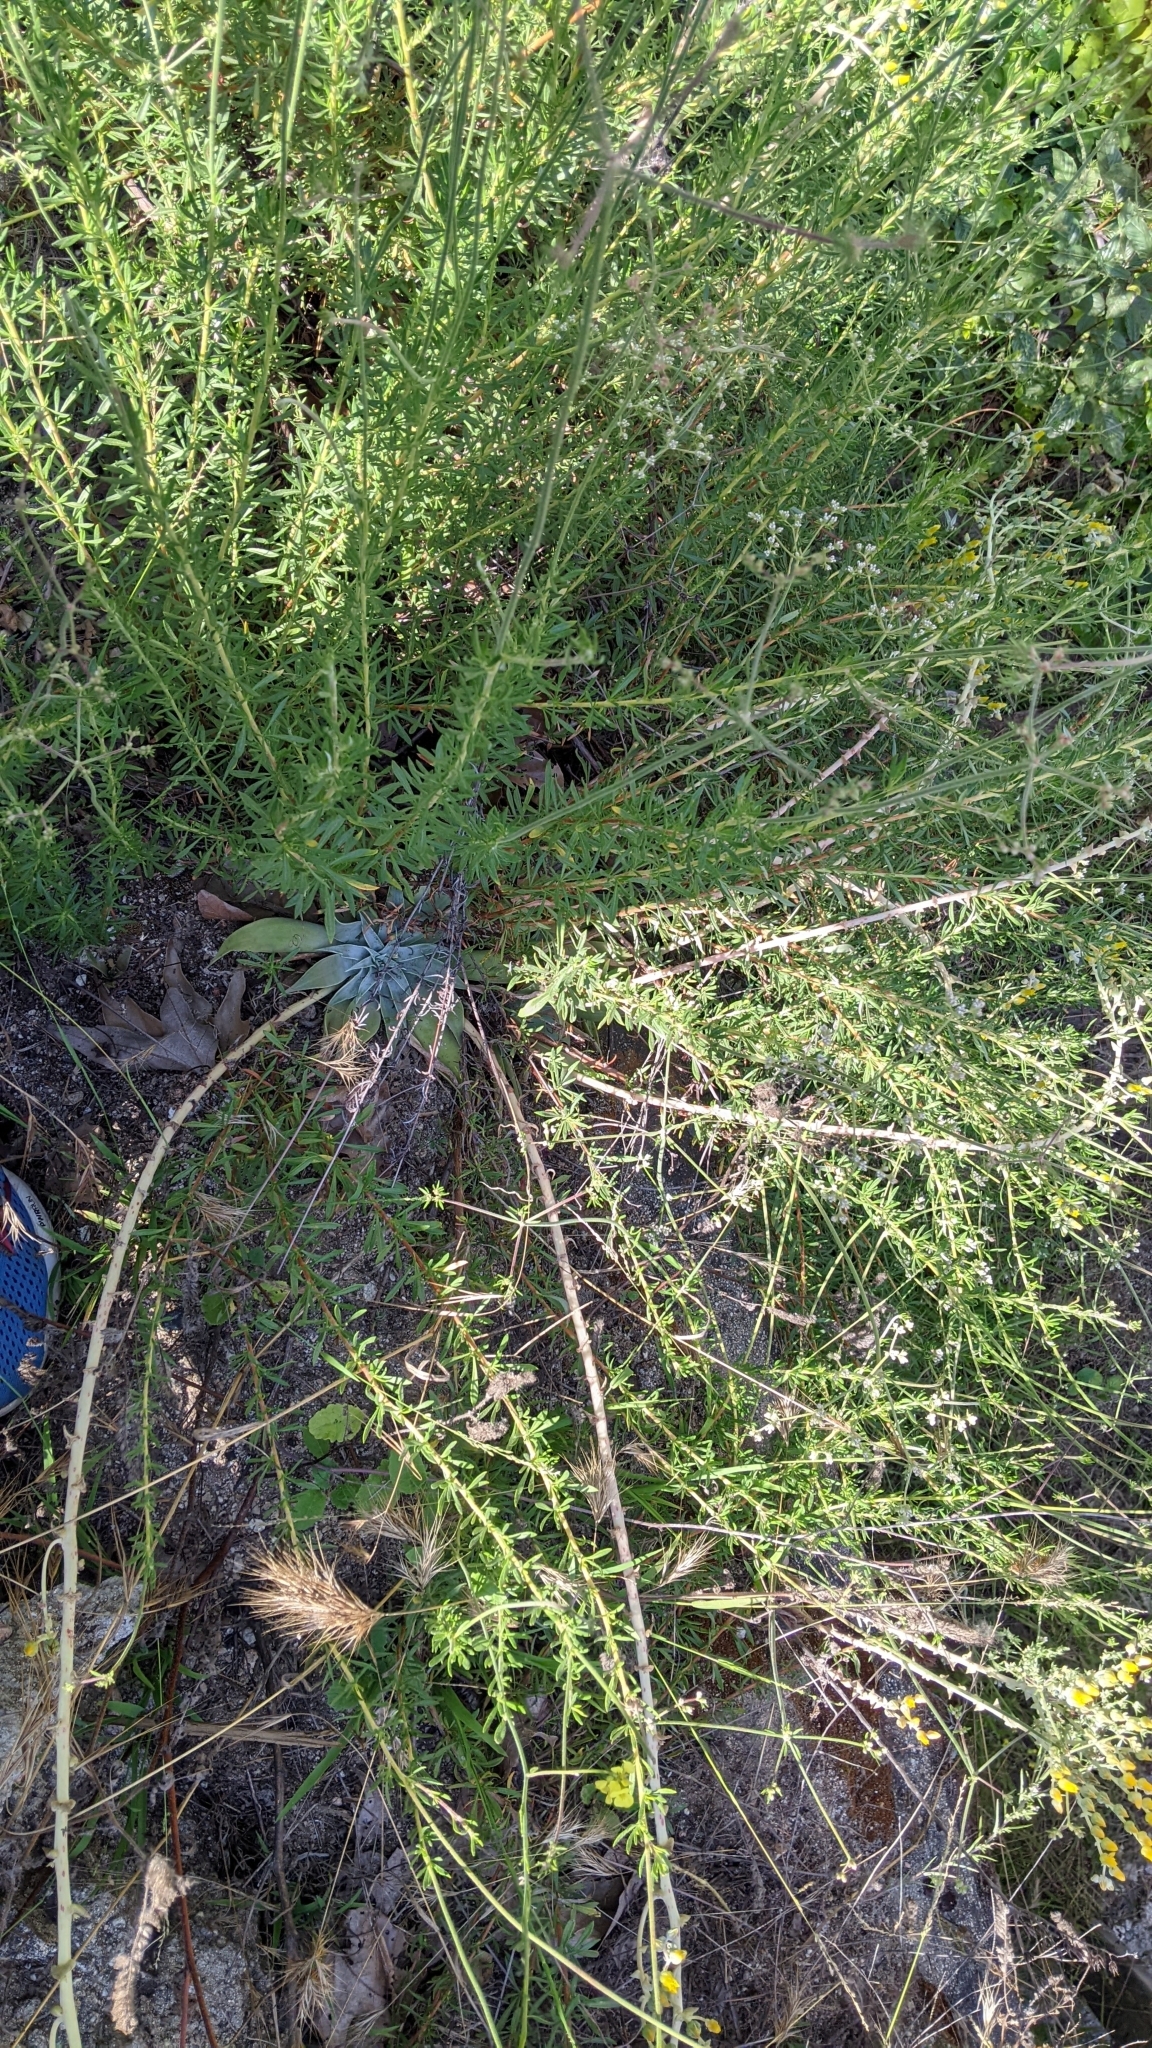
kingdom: Plantae
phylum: Tracheophyta
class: Magnoliopsida
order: Saxifragales
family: Crassulaceae
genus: Dudleya
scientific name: Dudleya lanceolata
